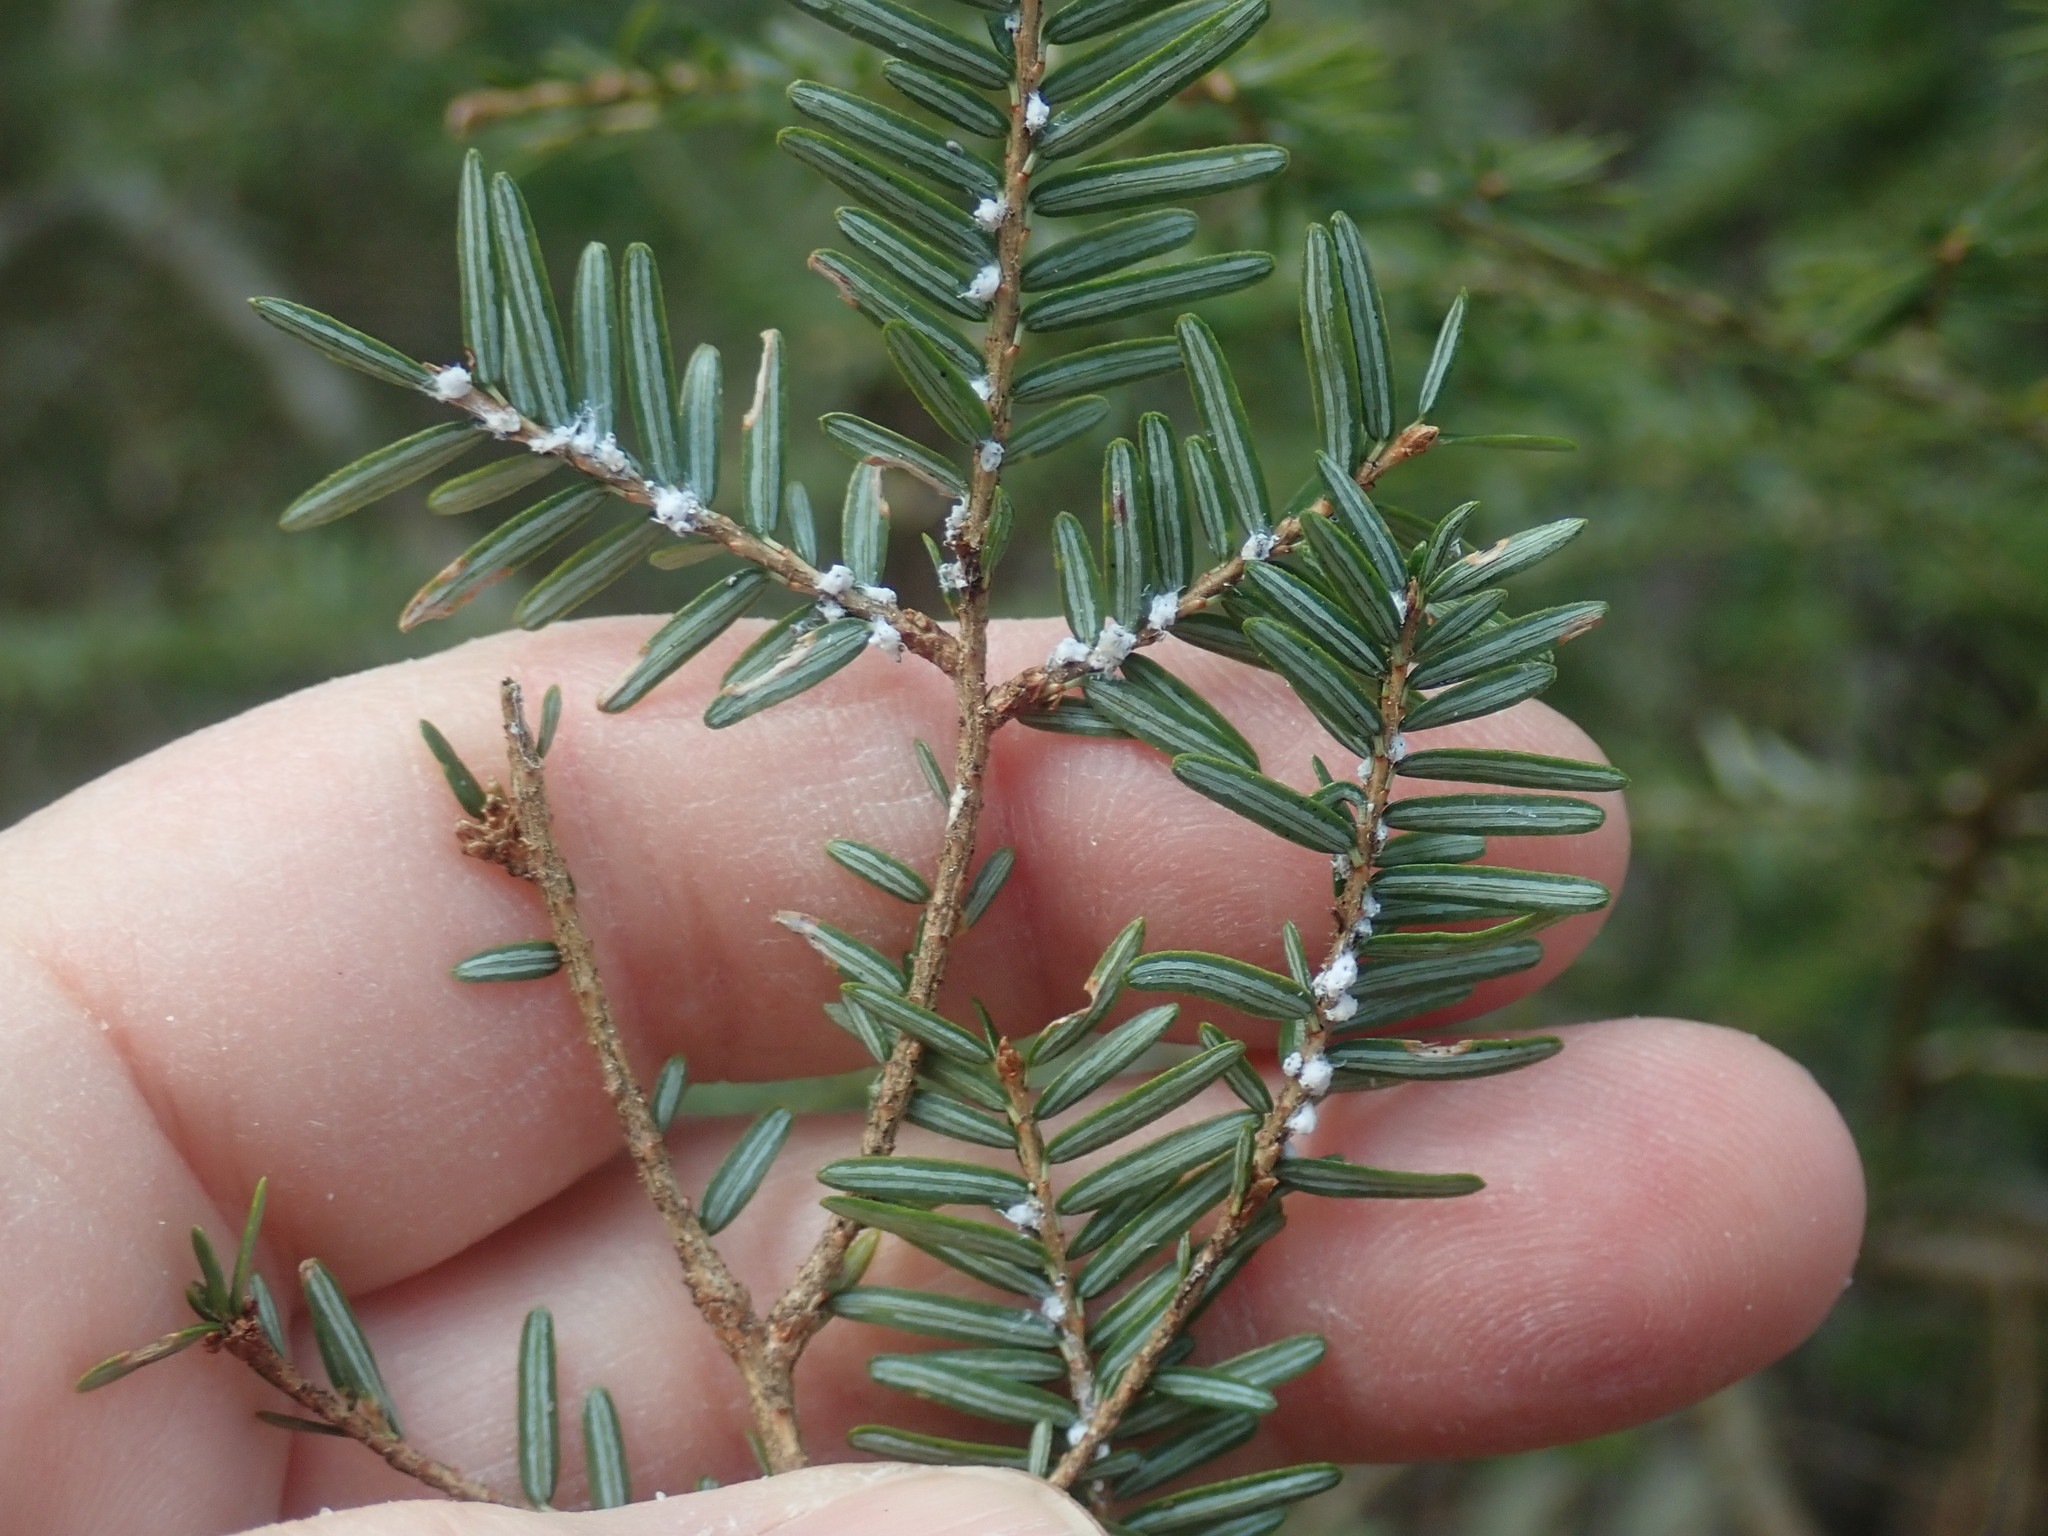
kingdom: Animalia
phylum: Arthropoda
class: Insecta
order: Hemiptera
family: Adelgidae
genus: Adelges
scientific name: Adelges tsugae
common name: Hemlock woolly adelgid
